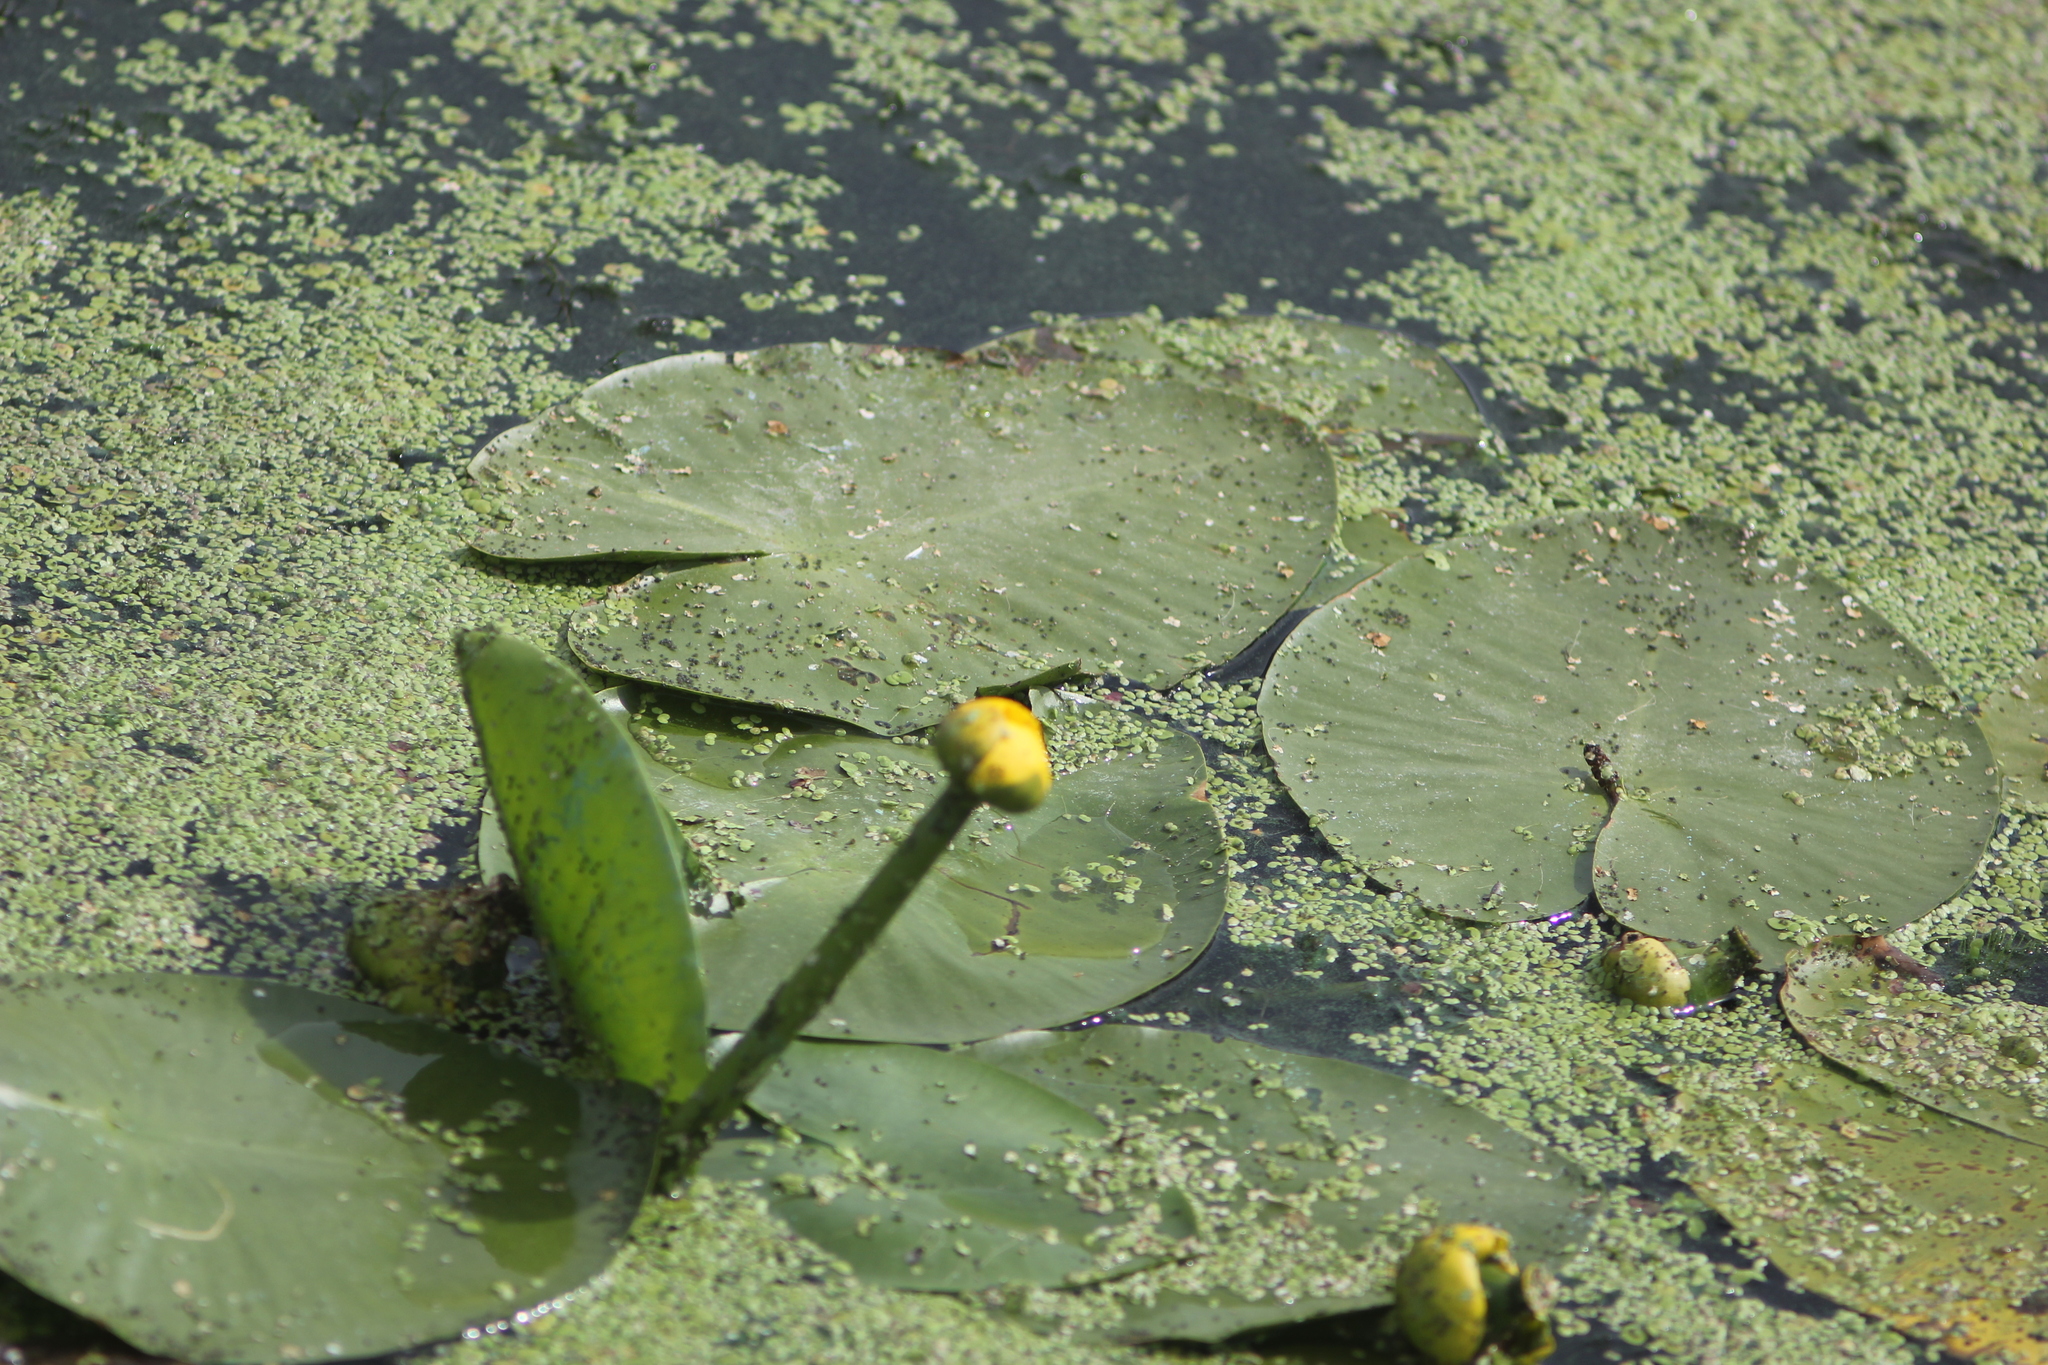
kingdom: Plantae
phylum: Tracheophyta
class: Magnoliopsida
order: Nymphaeales
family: Nymphaeaceae
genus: Nuphar
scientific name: Nuphar lutea
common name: Yellow water-lily
